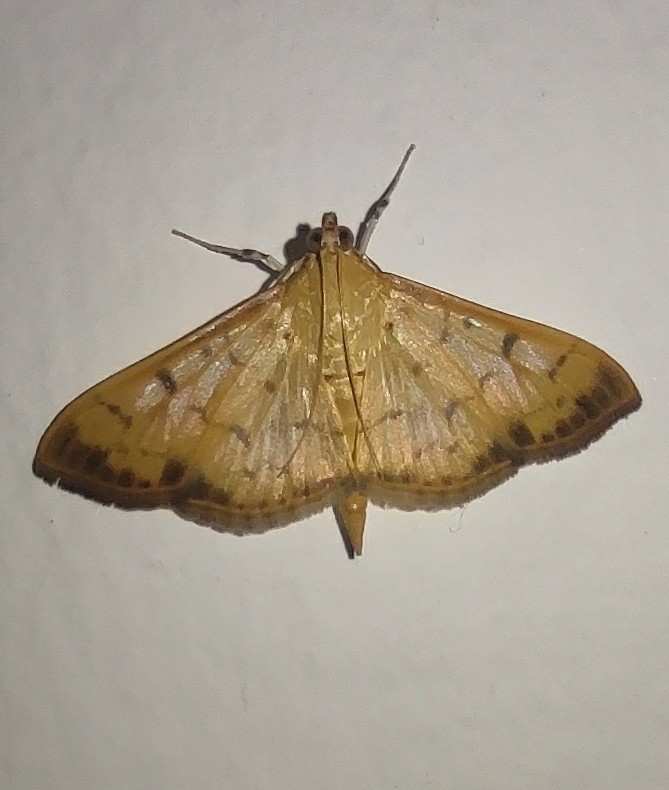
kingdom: Animalia
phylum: Arthropoda
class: Insecta
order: Lepidoptera
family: Crambidae
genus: Pleuroptya
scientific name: Pleuroptya balteata
